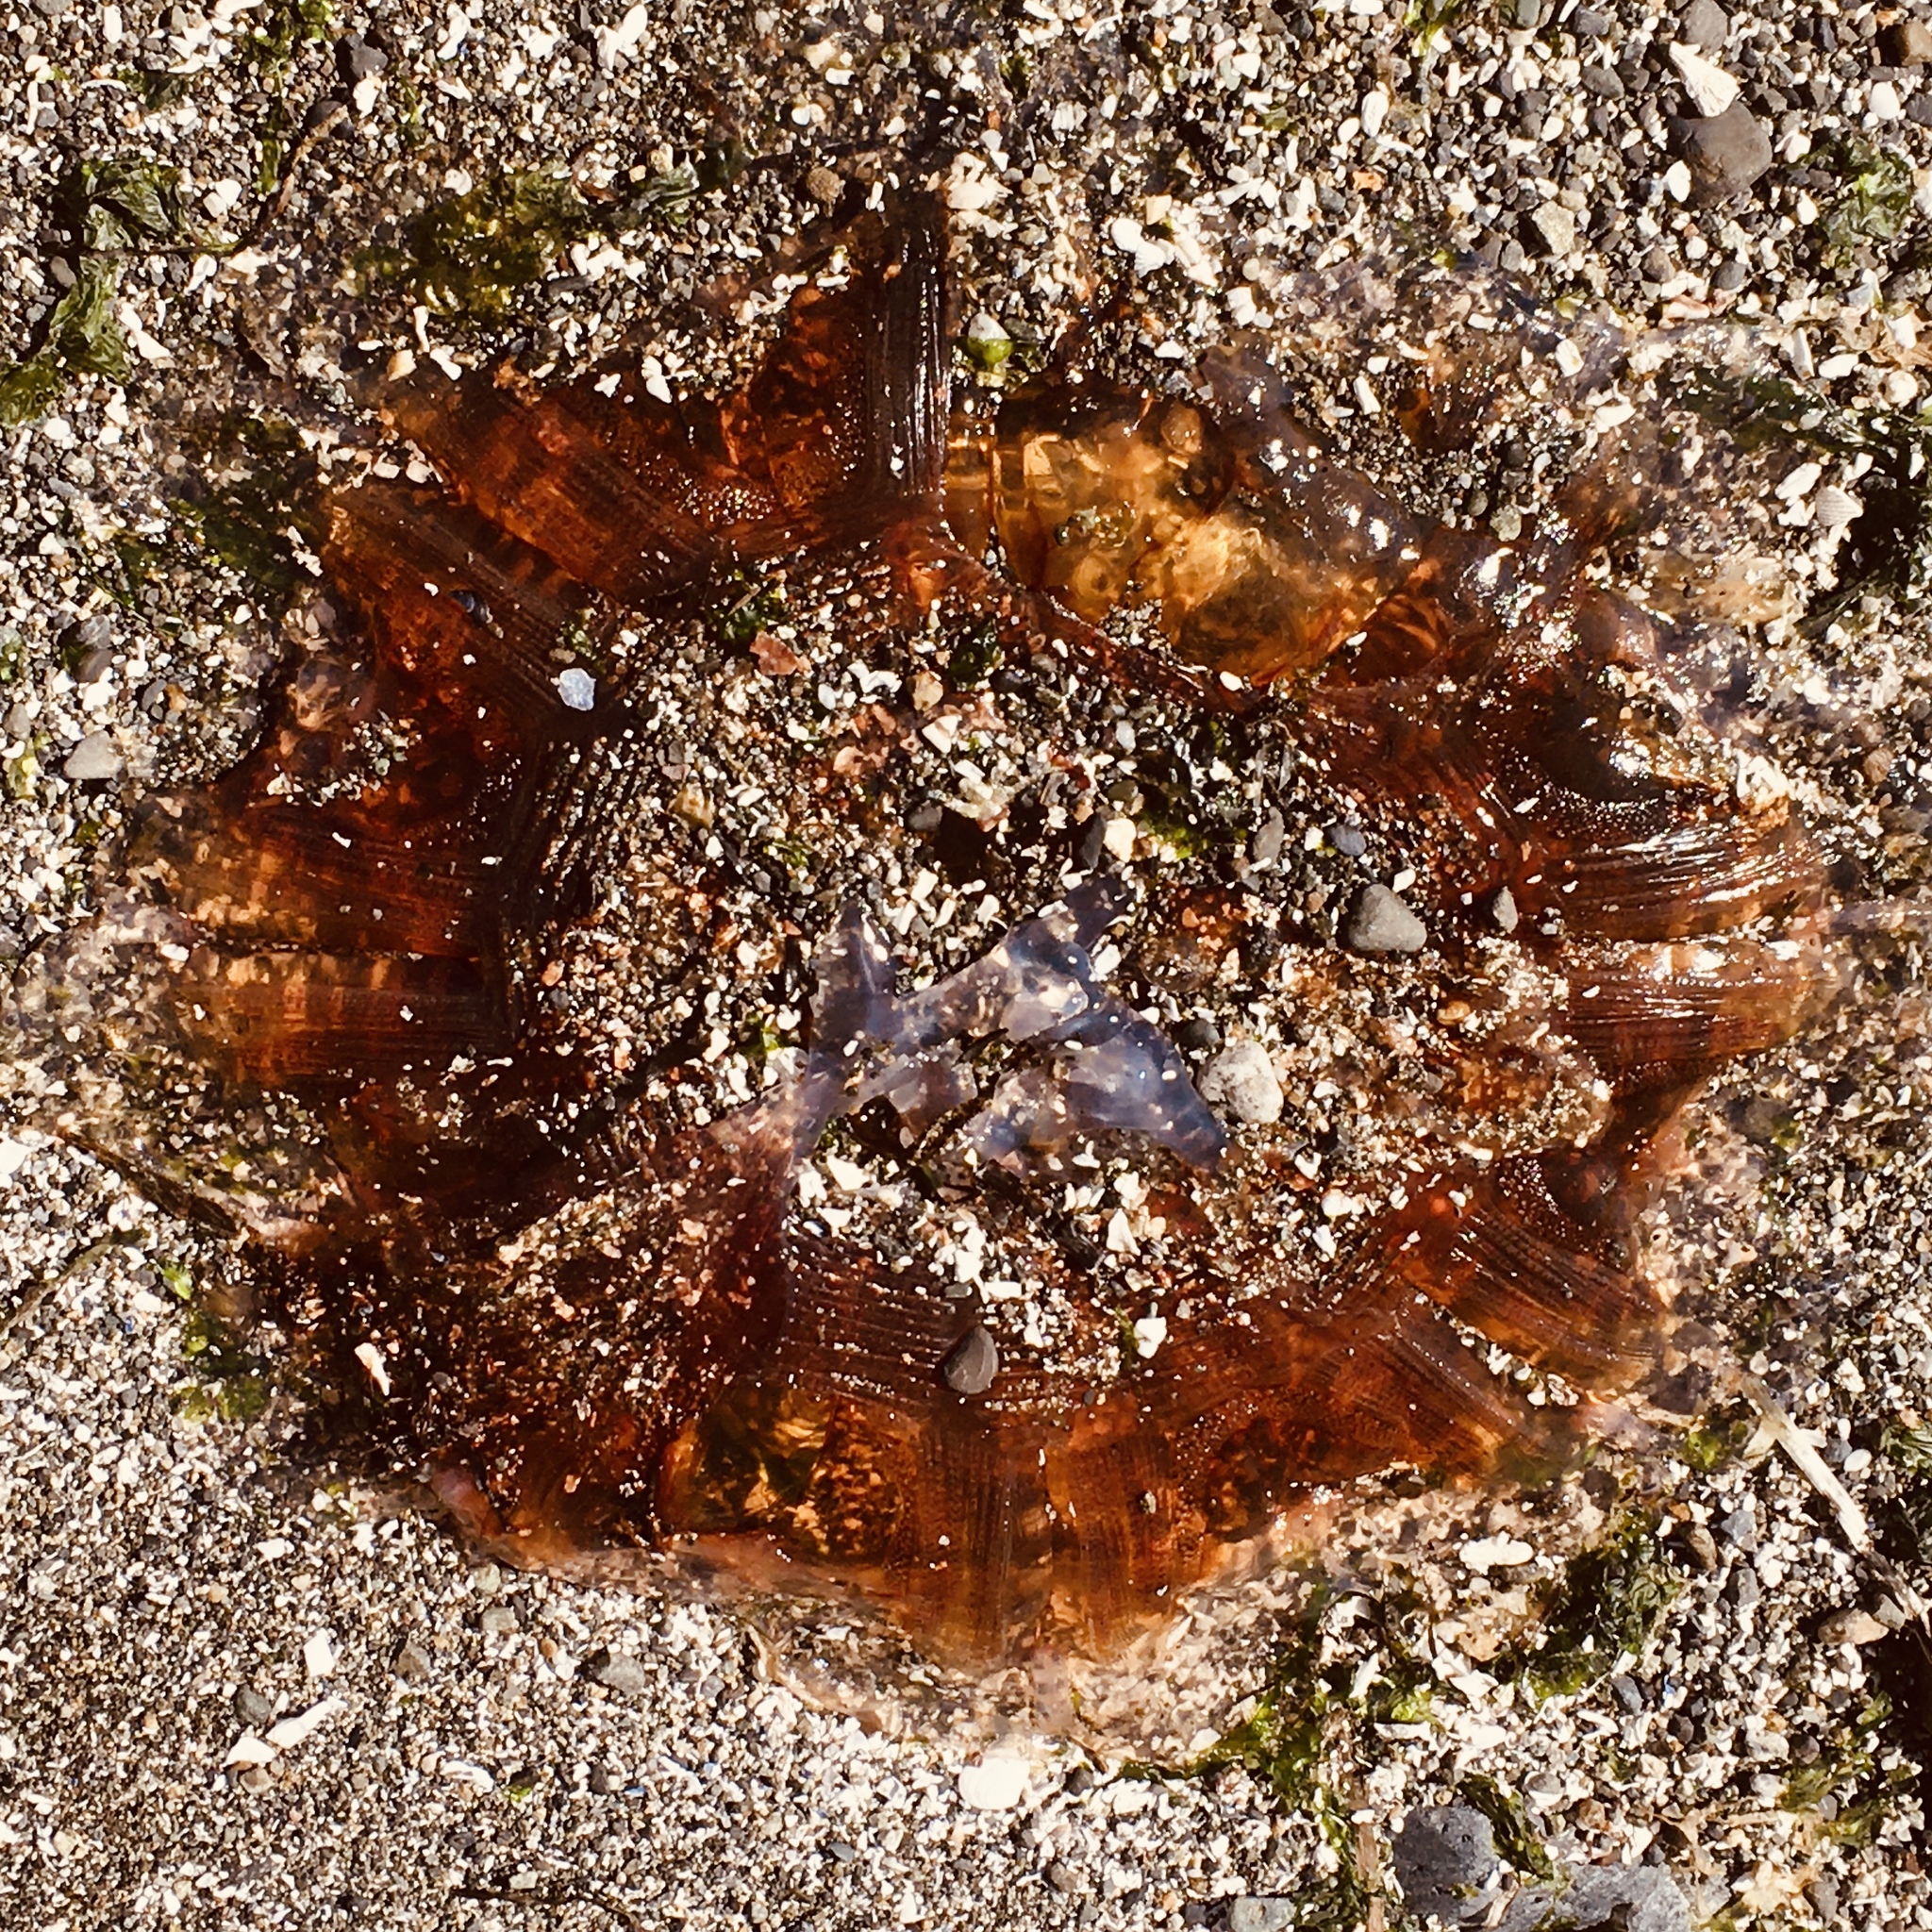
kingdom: Animalia
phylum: Cnidaria
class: Scyphozoa
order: Semaeostomeae
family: Cyaneidae
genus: Cyanea
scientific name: Cyanea ferruginea
